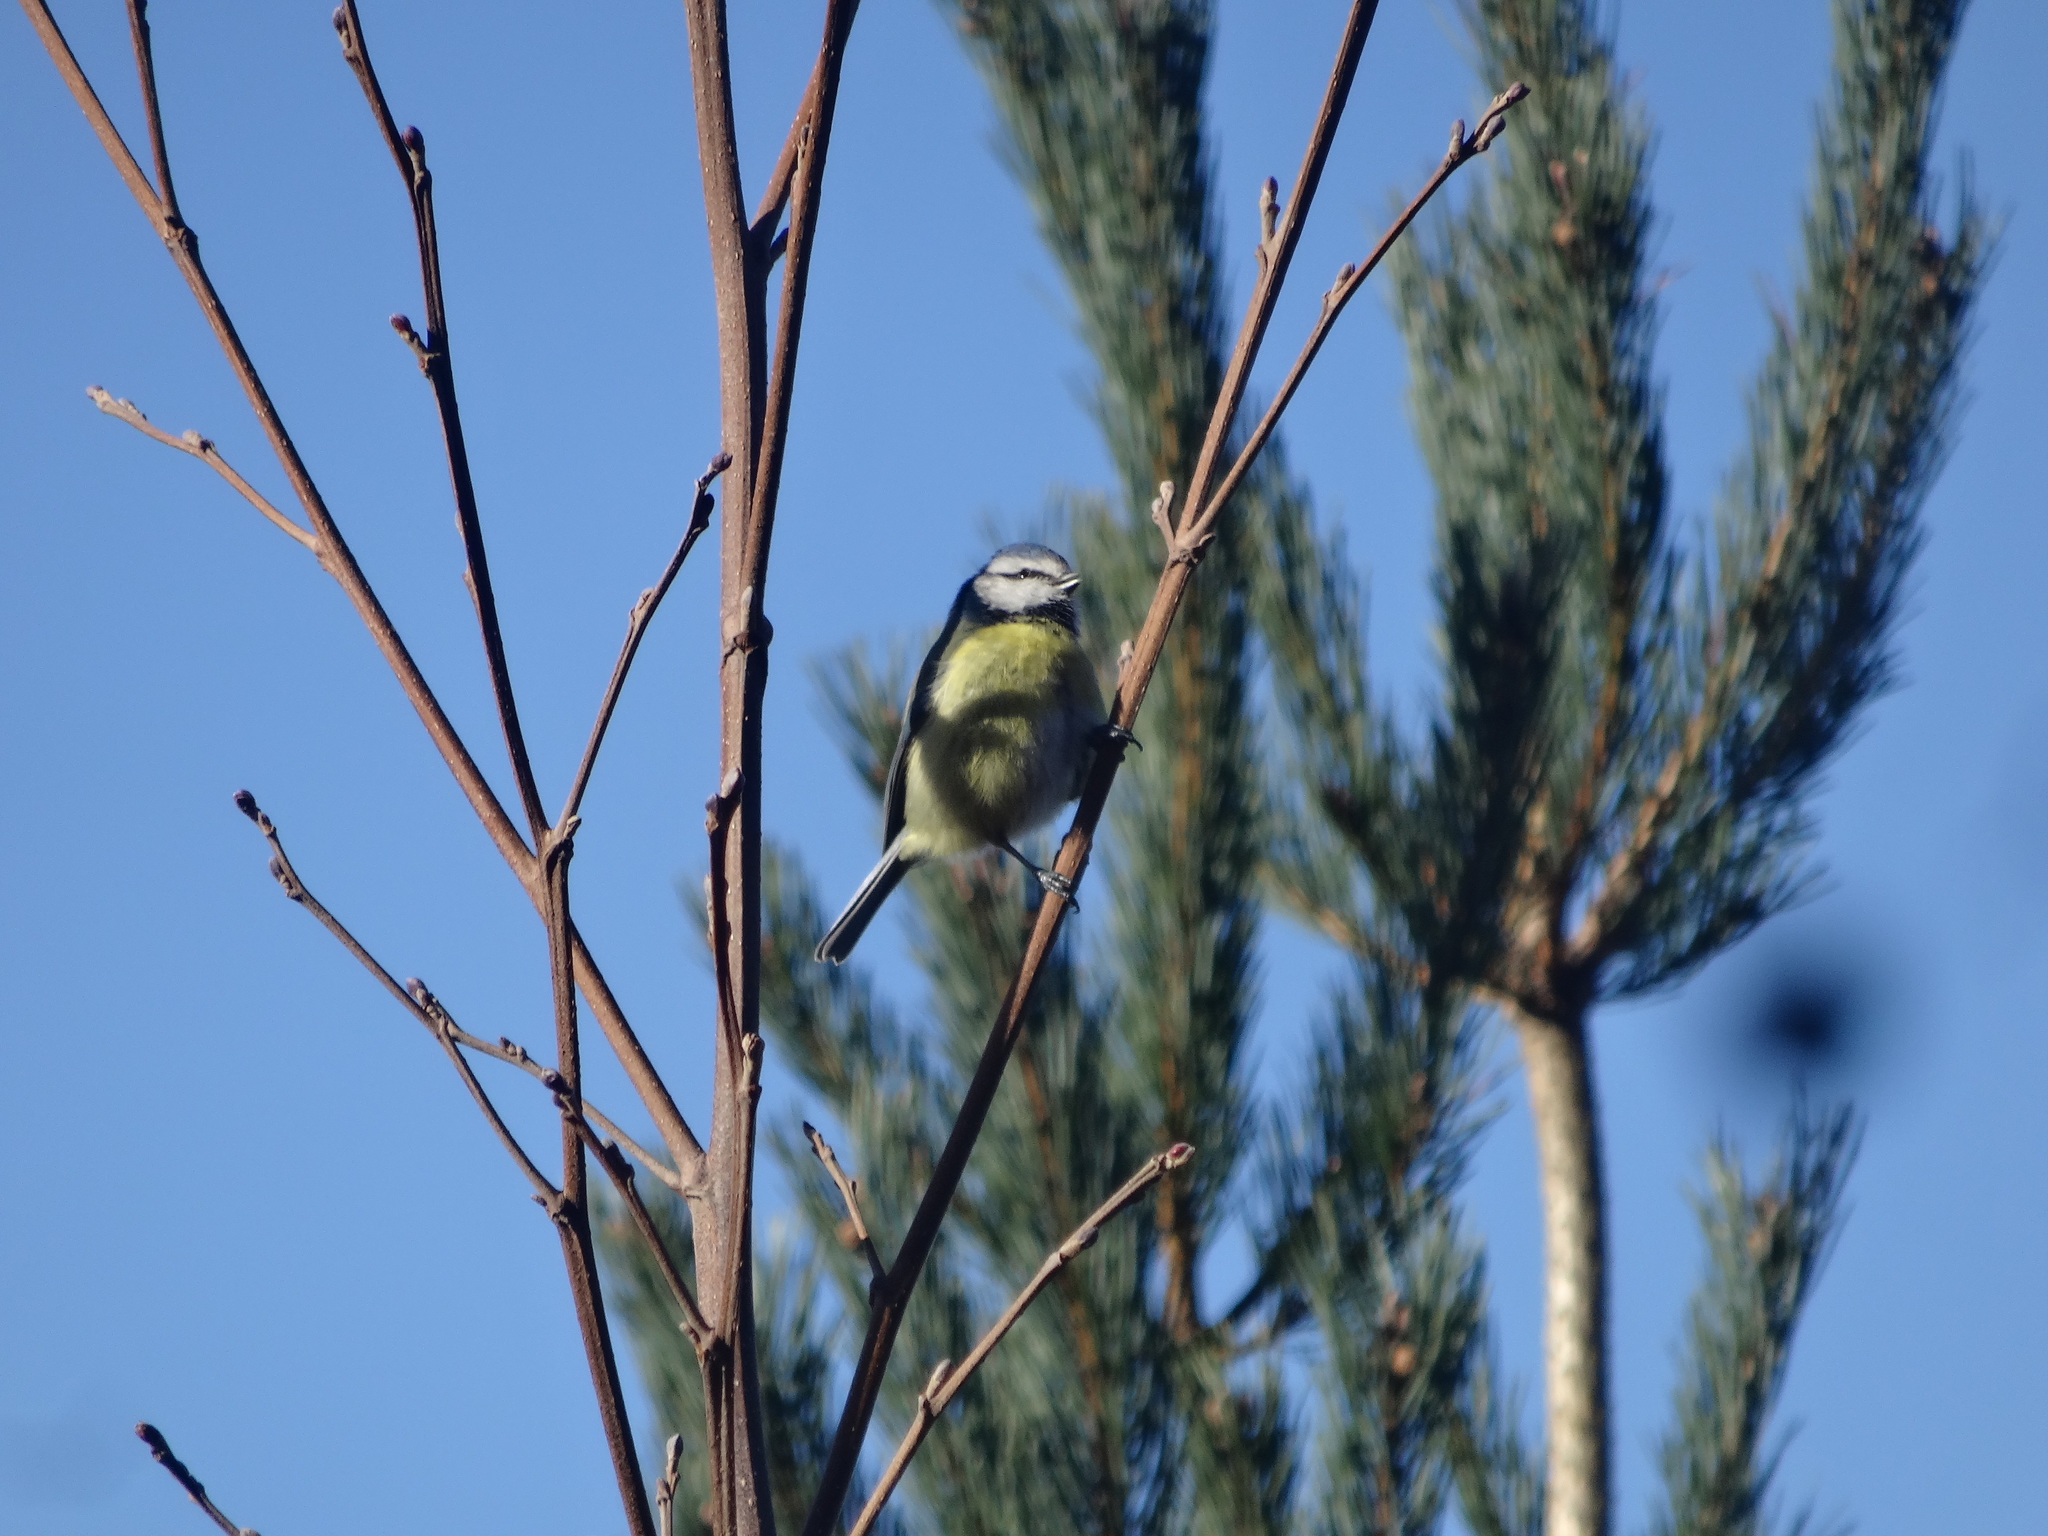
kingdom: Animalia
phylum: Chordata
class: Aves
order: Passeriformes
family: Paridae
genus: Cyanistes
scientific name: Cyanistes caeruleus
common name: Eurasian blue tit
